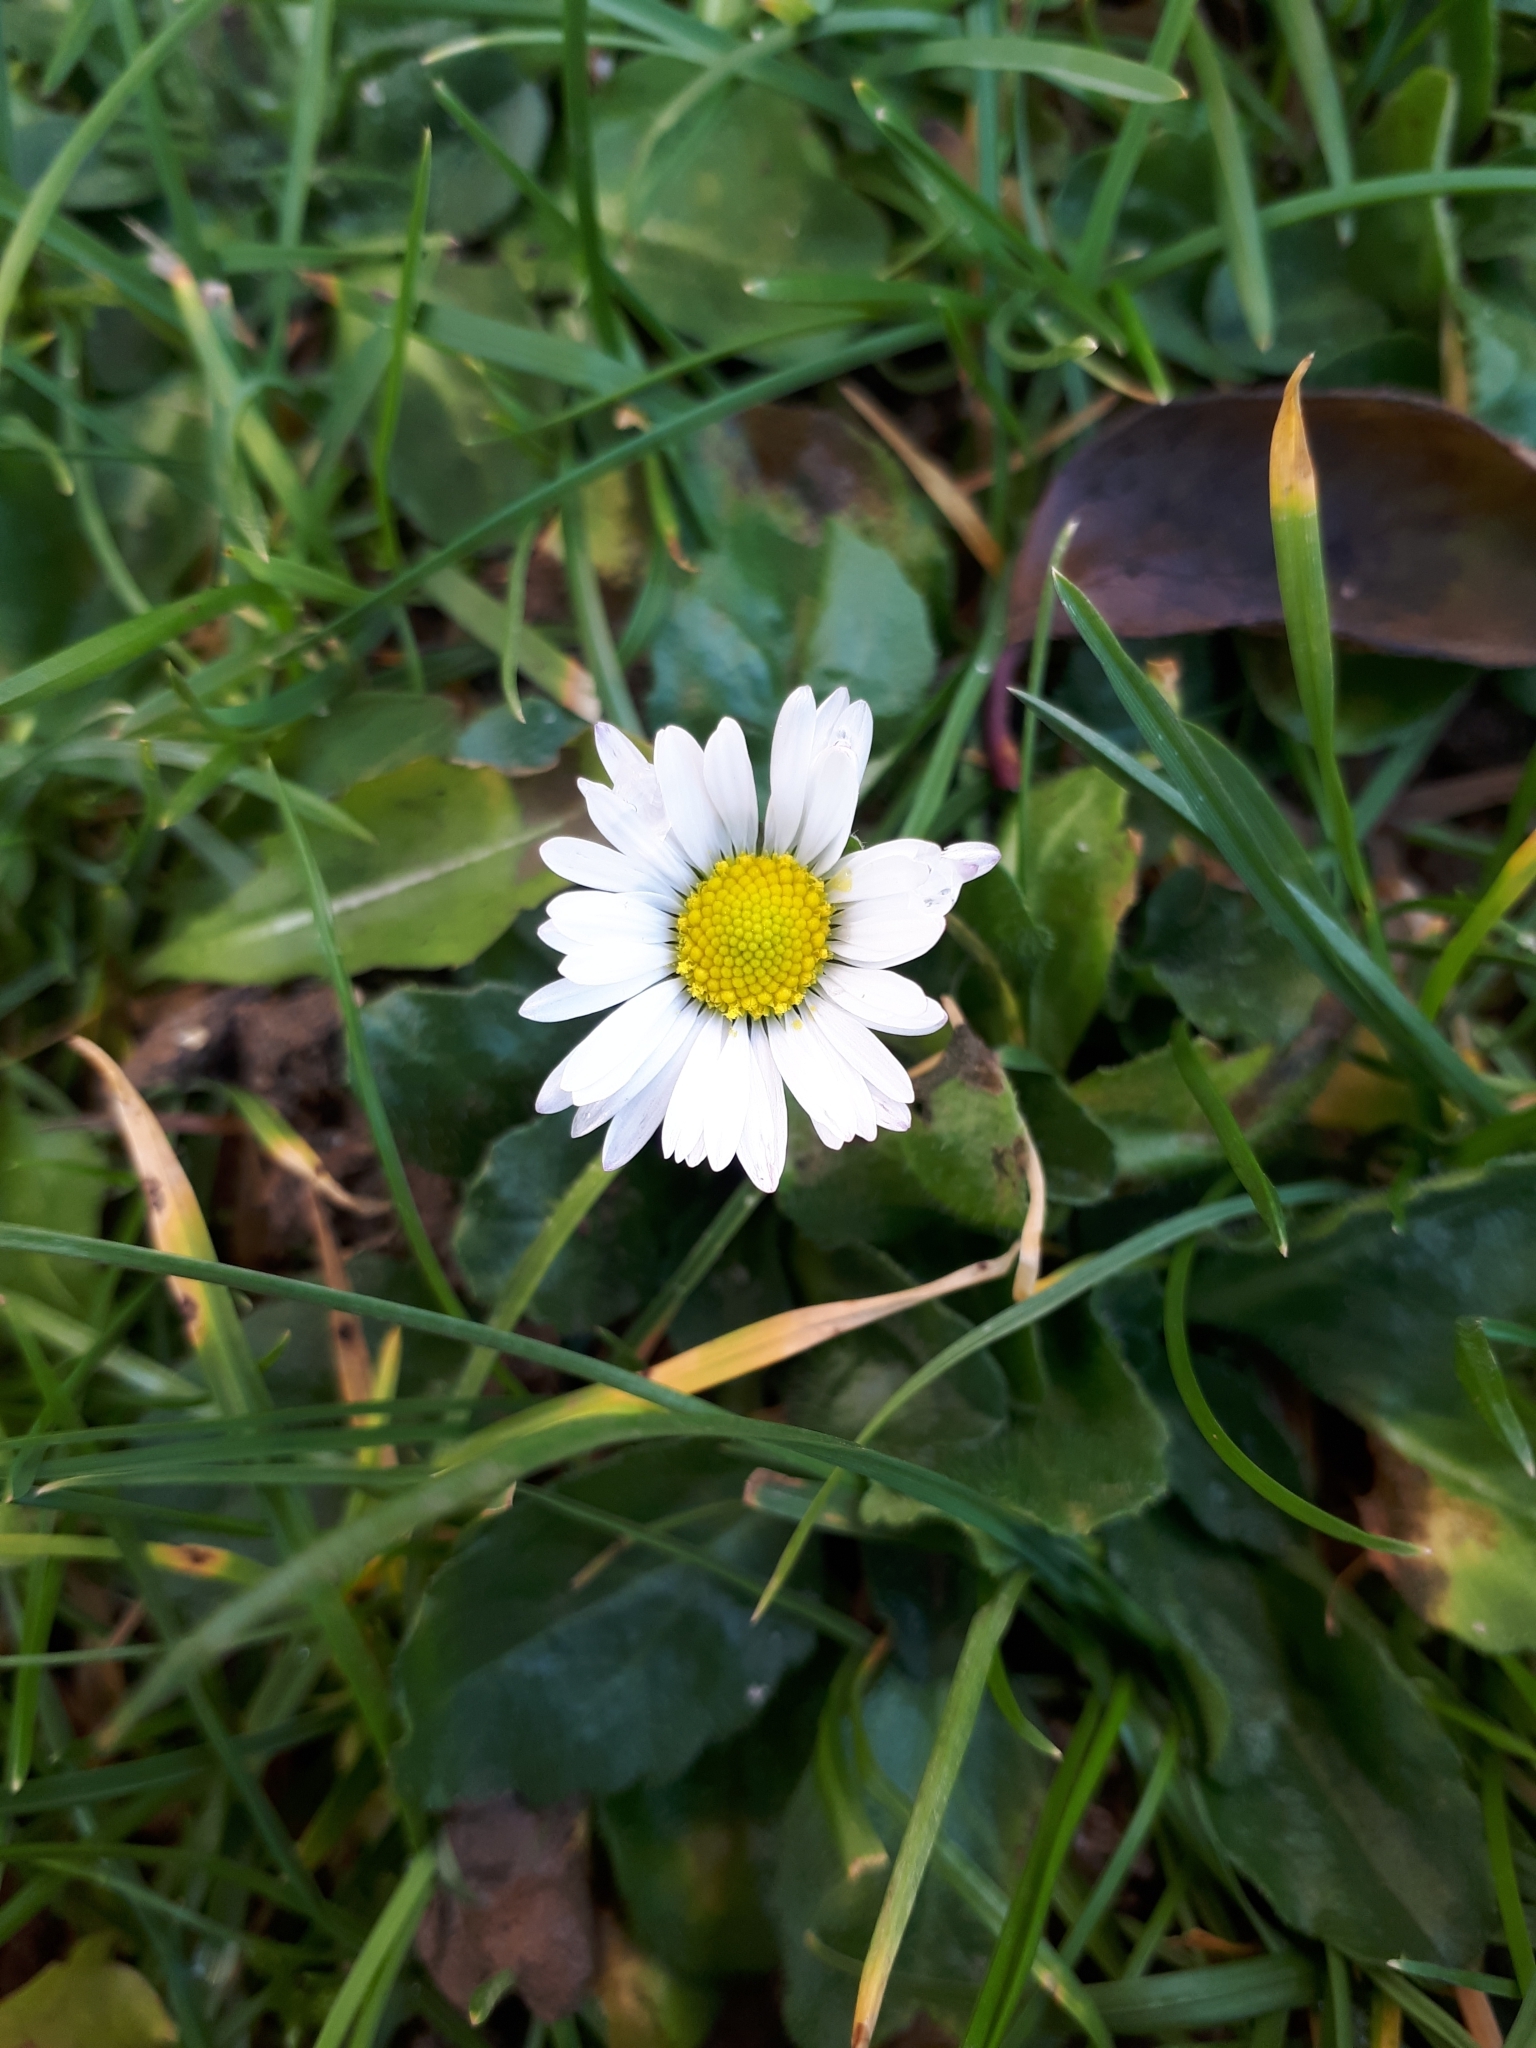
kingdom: Plantae
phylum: Tracheophyta
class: Magnoliopsida
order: Asterales
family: Asteraceae
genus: Bellis
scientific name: Bellis perennis
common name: Lawndaisy
